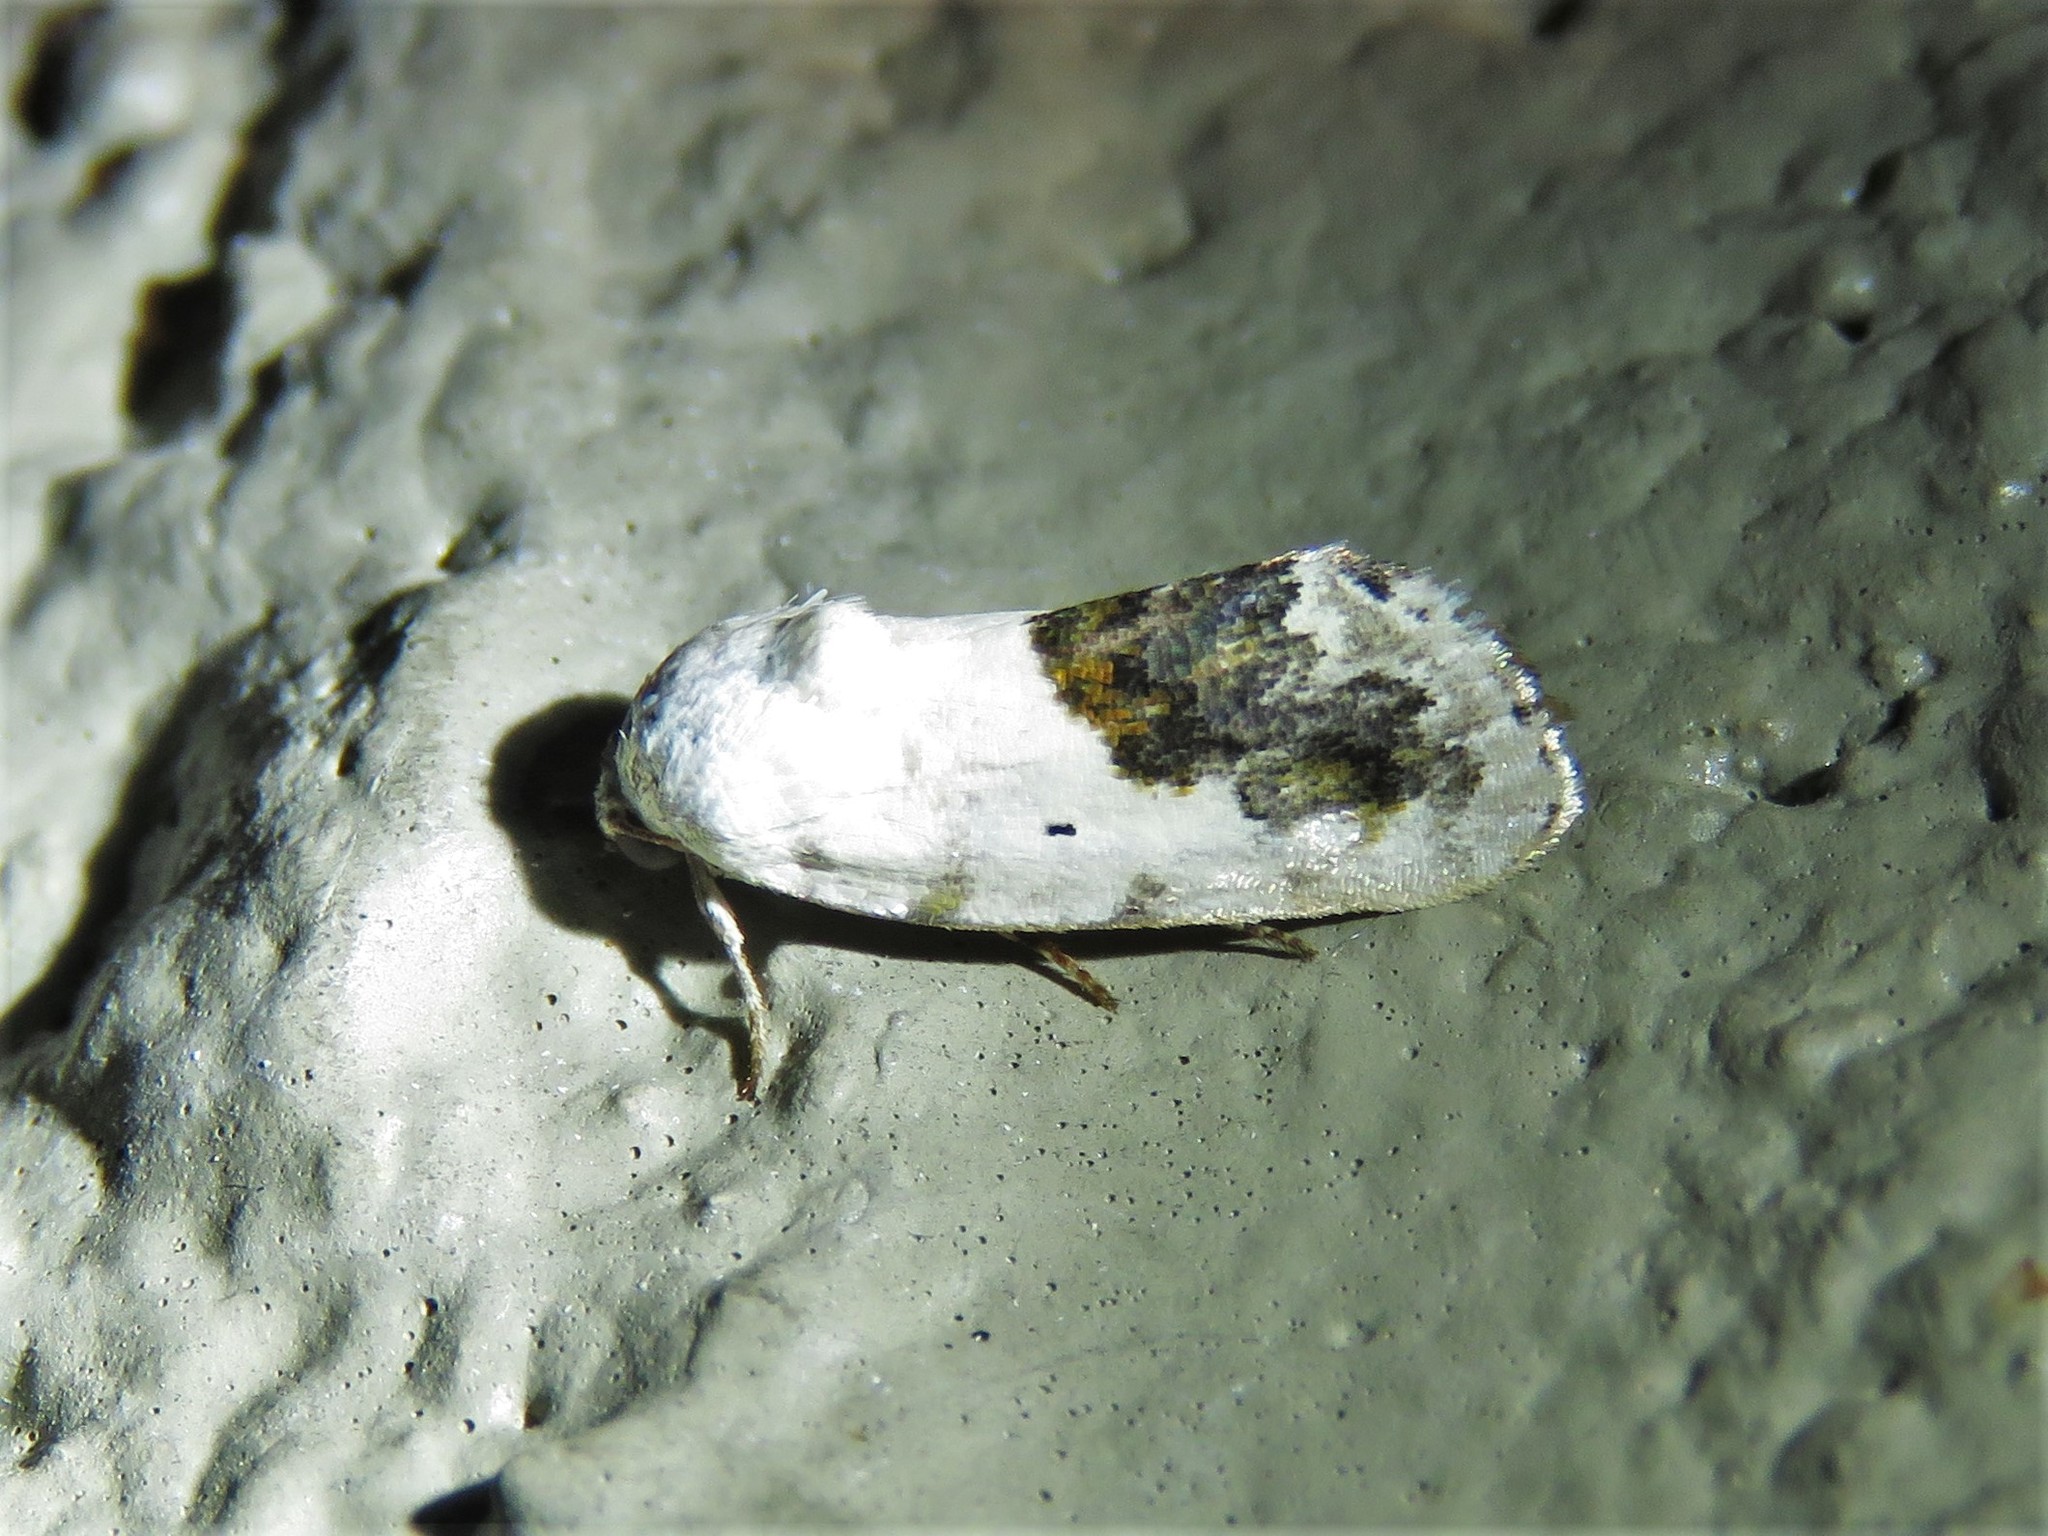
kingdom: Animalia
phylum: Arthropoda
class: Insecta
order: Lepidoptera
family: Noctuidae
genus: Acontia
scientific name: Acontia erastrioides
